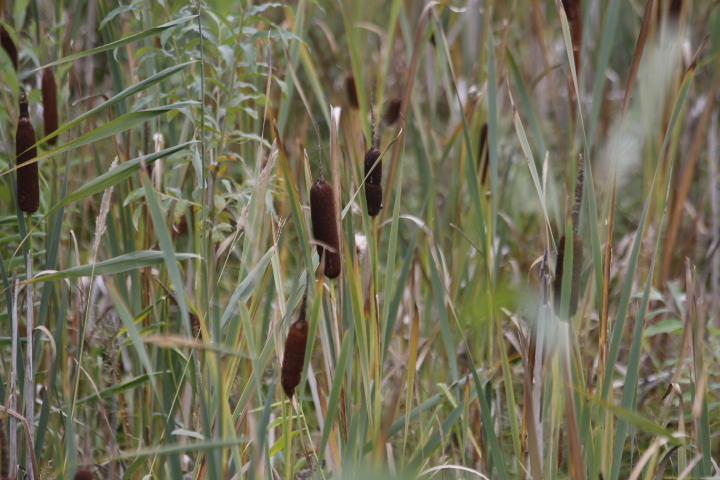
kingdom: Plantae
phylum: Tracheophyta
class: Liliopsida
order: Poales
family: Typhaceae
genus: Typha
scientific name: Typha latifolia
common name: Broadleaf cattail
